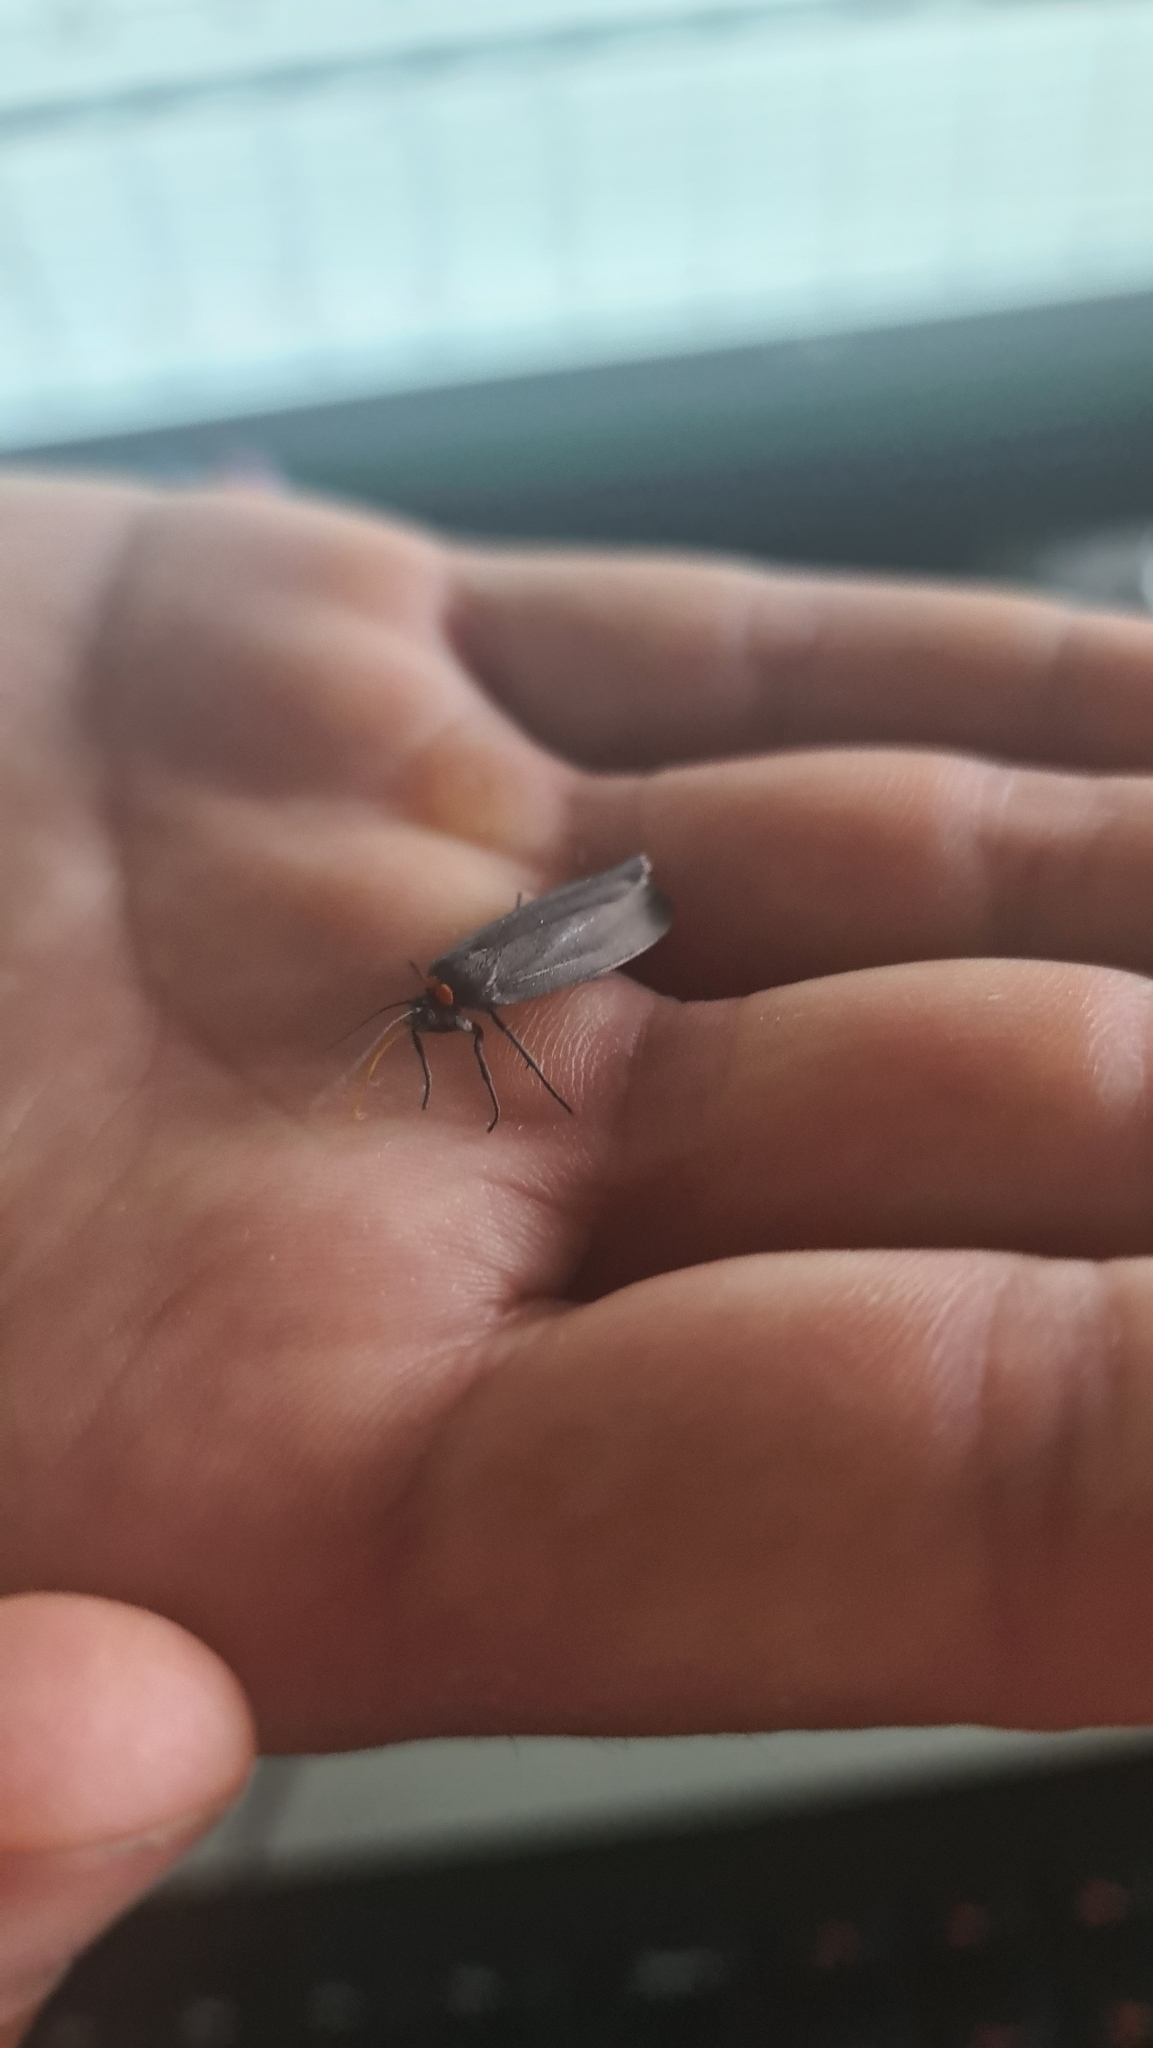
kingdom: Animalia
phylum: Arthropoda
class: Insecta
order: Lepidoptera
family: Erebidae
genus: Atolmis
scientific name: Atolmis rubricollis
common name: Red-necked footman
